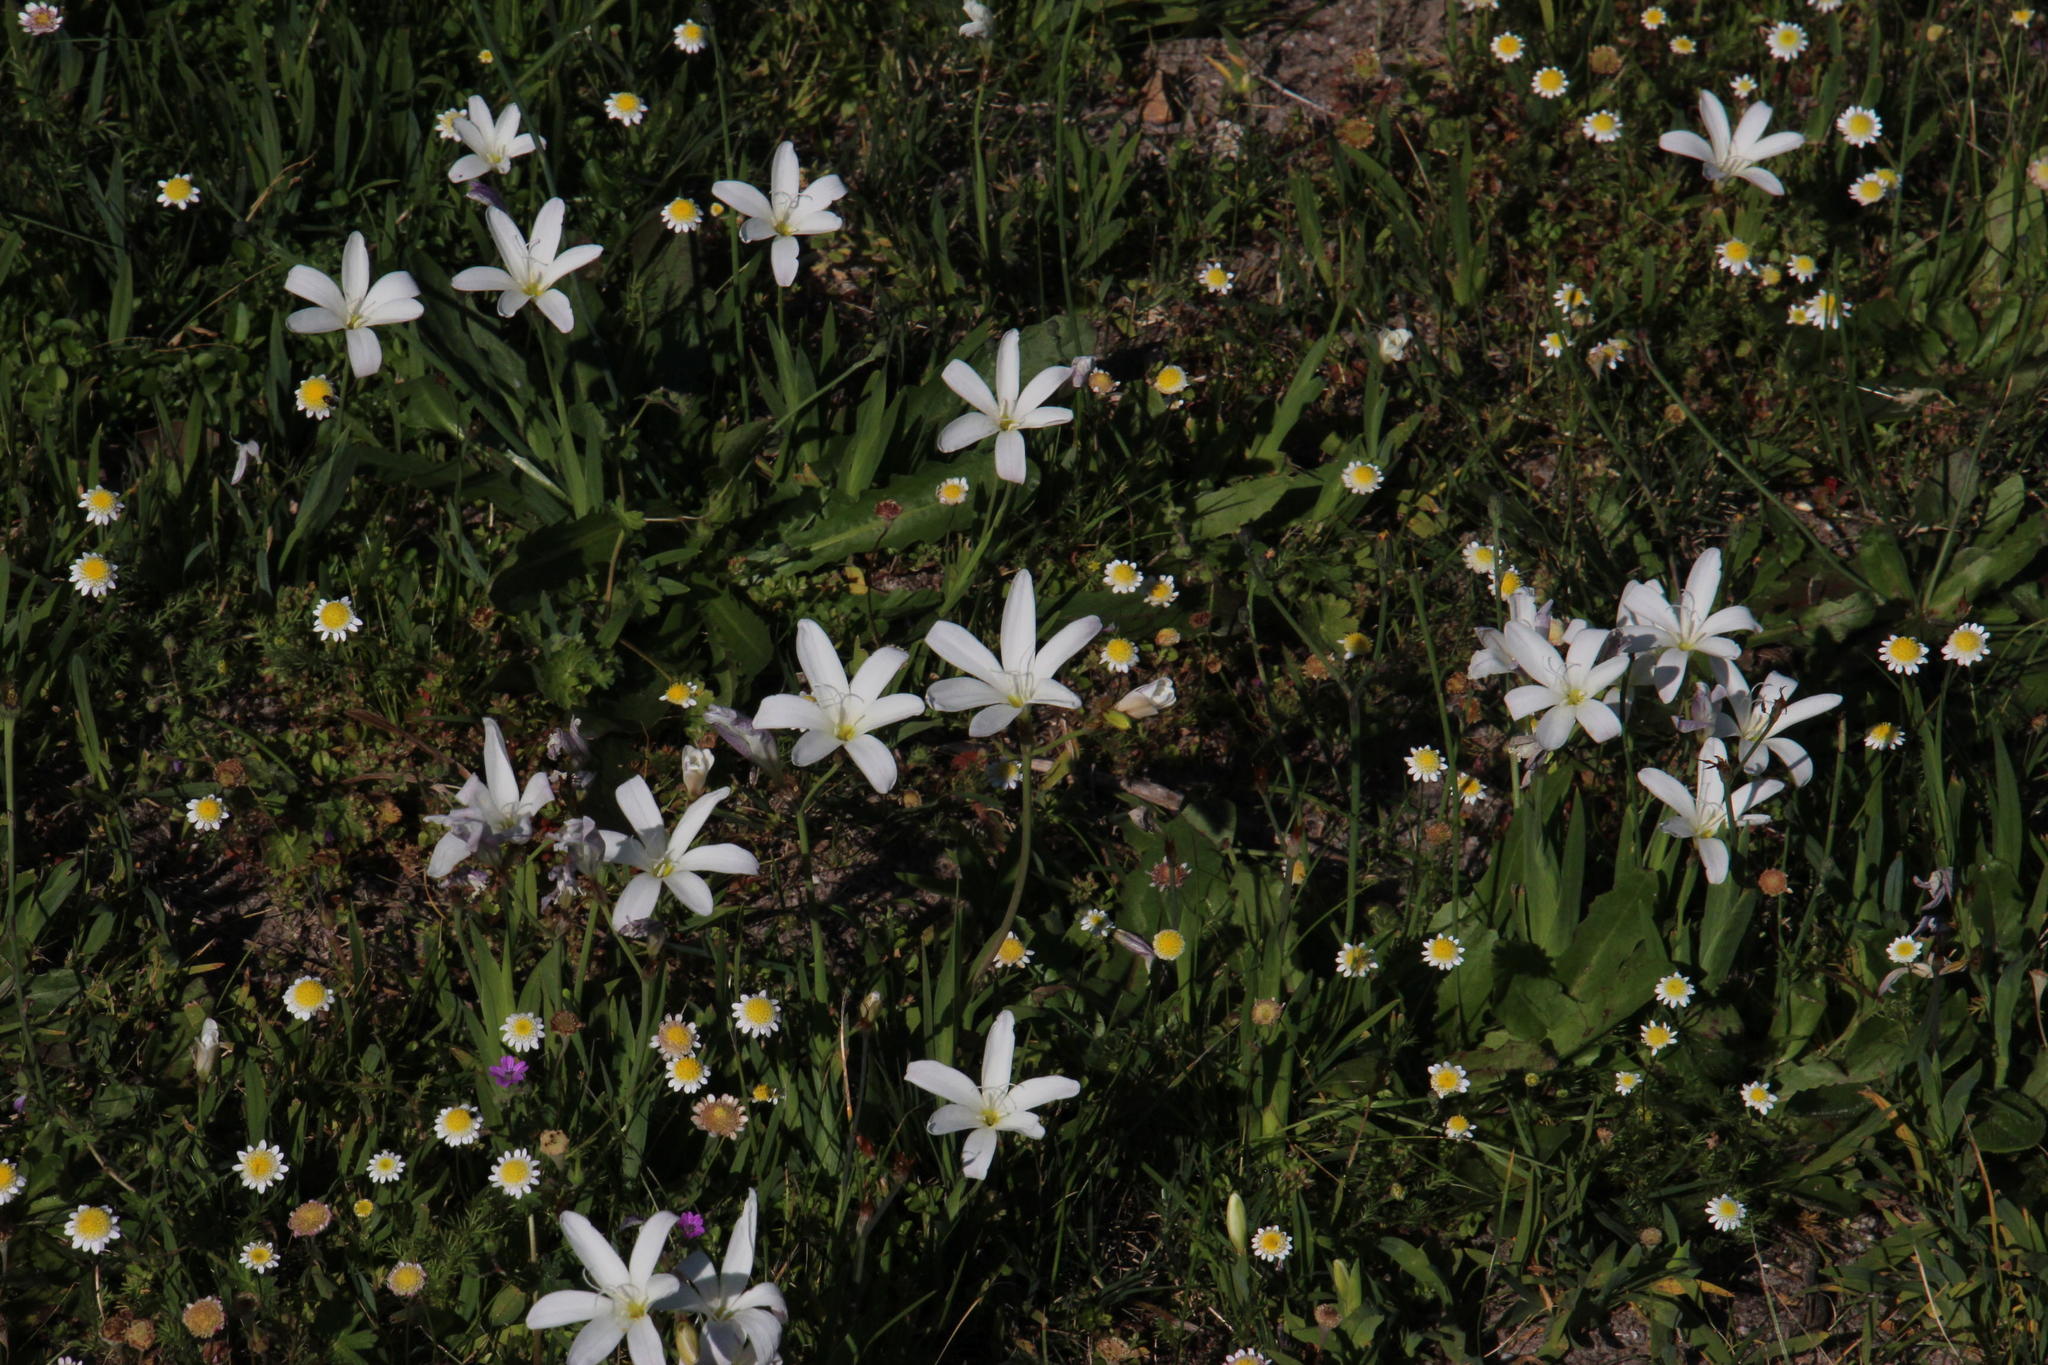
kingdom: Plantae
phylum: Tracheophyta
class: Liliopsida
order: Asparagales
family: Iridaceae
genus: Sparaxis
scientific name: Sparaxis bulbifera
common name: Harlequin-flower
